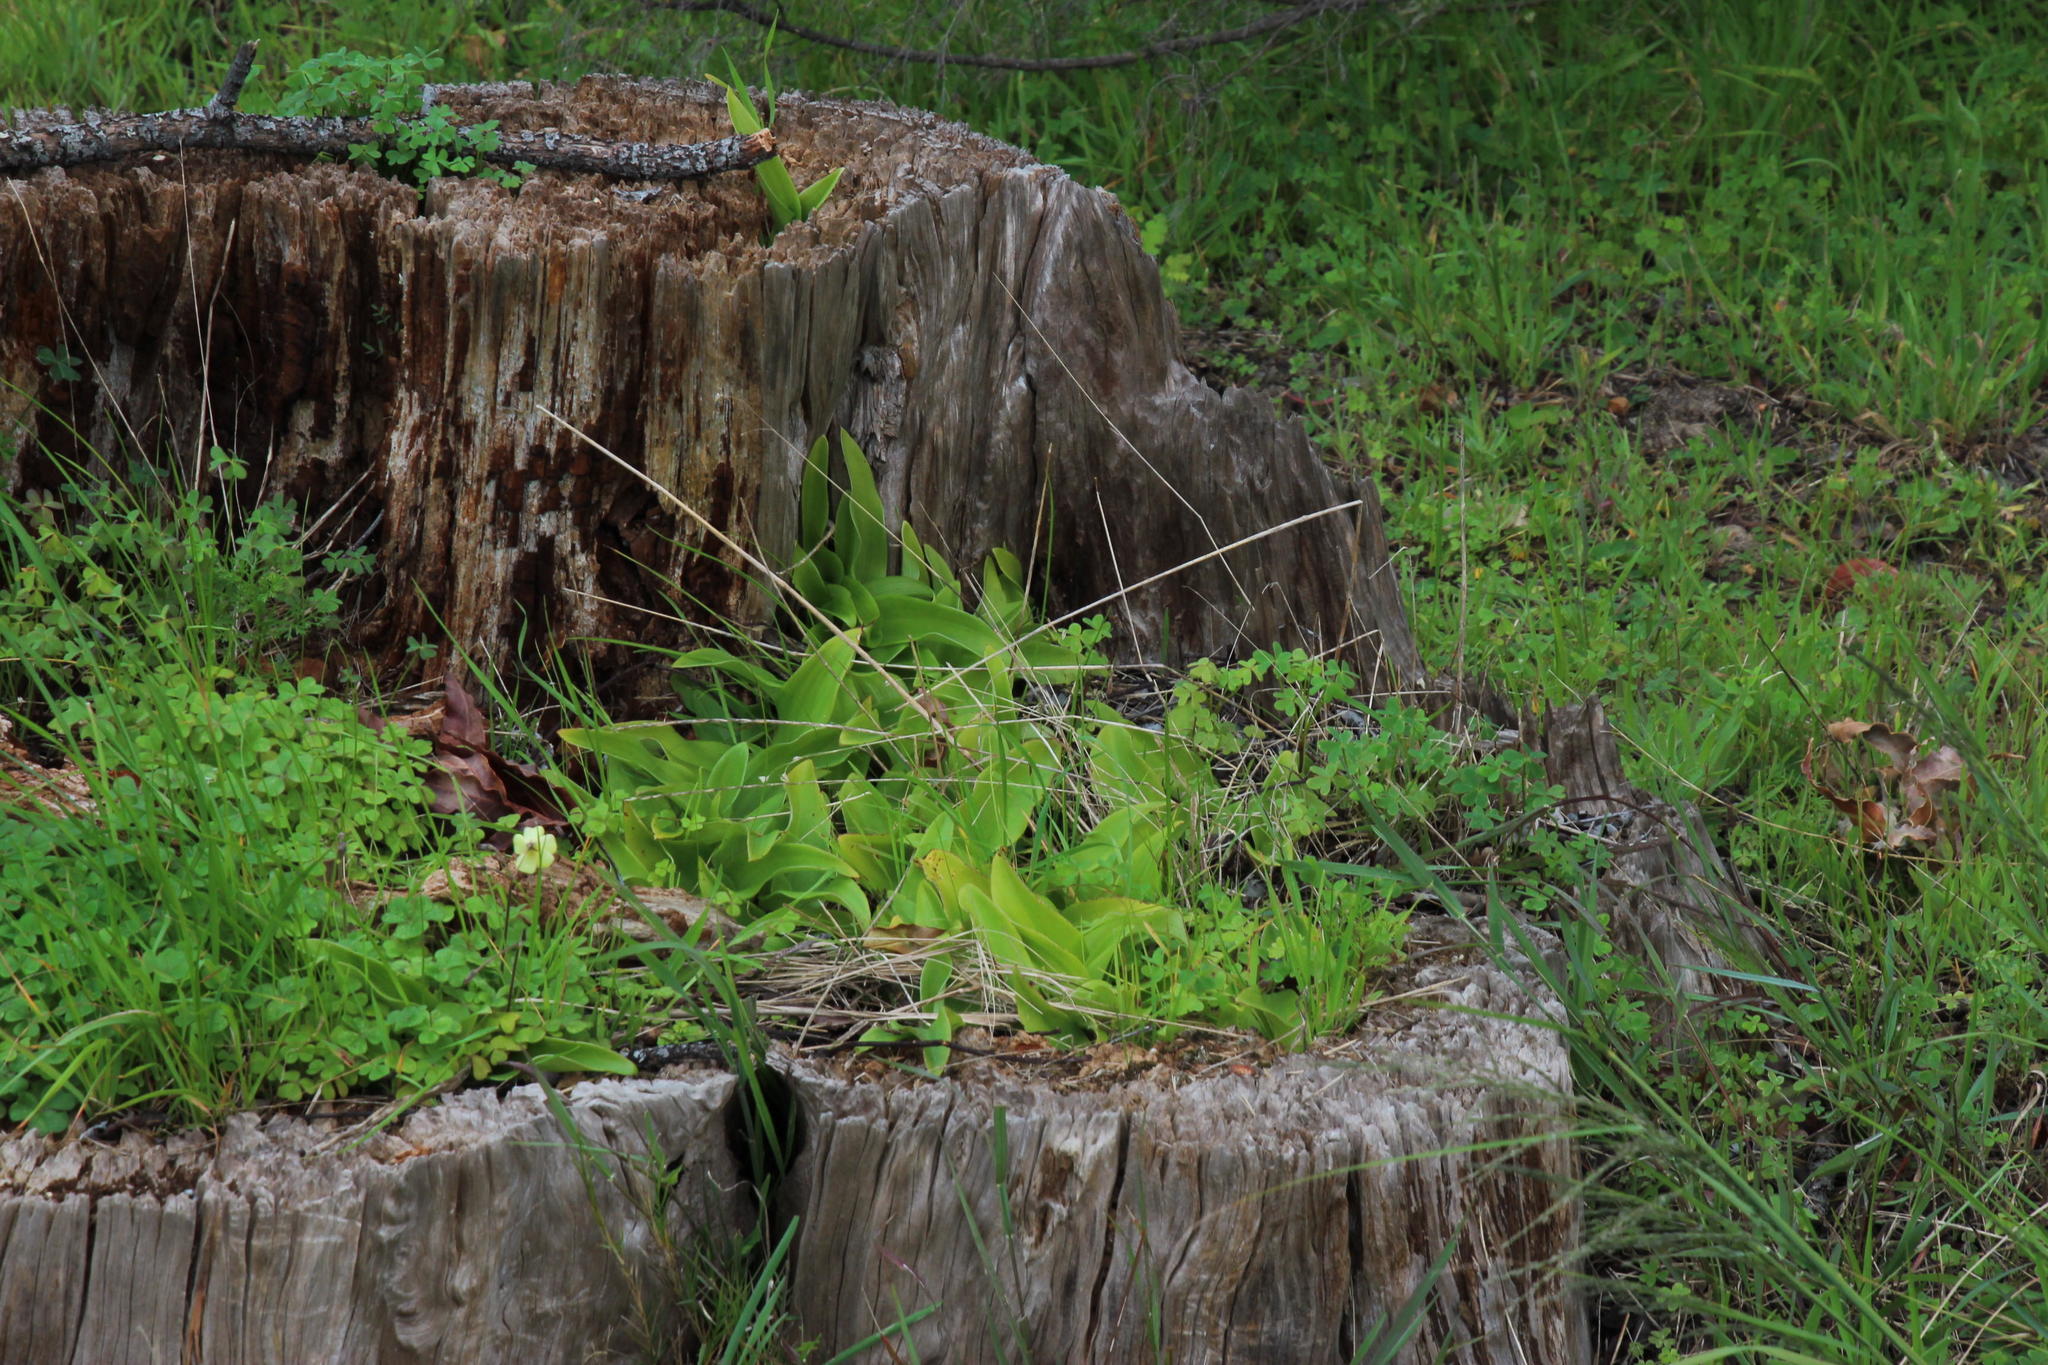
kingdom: Plantae
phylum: Tracheophyta
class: Liliopsida
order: Asparagales
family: Orchidaceae
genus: Satyrium
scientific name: Satyrium odorum
